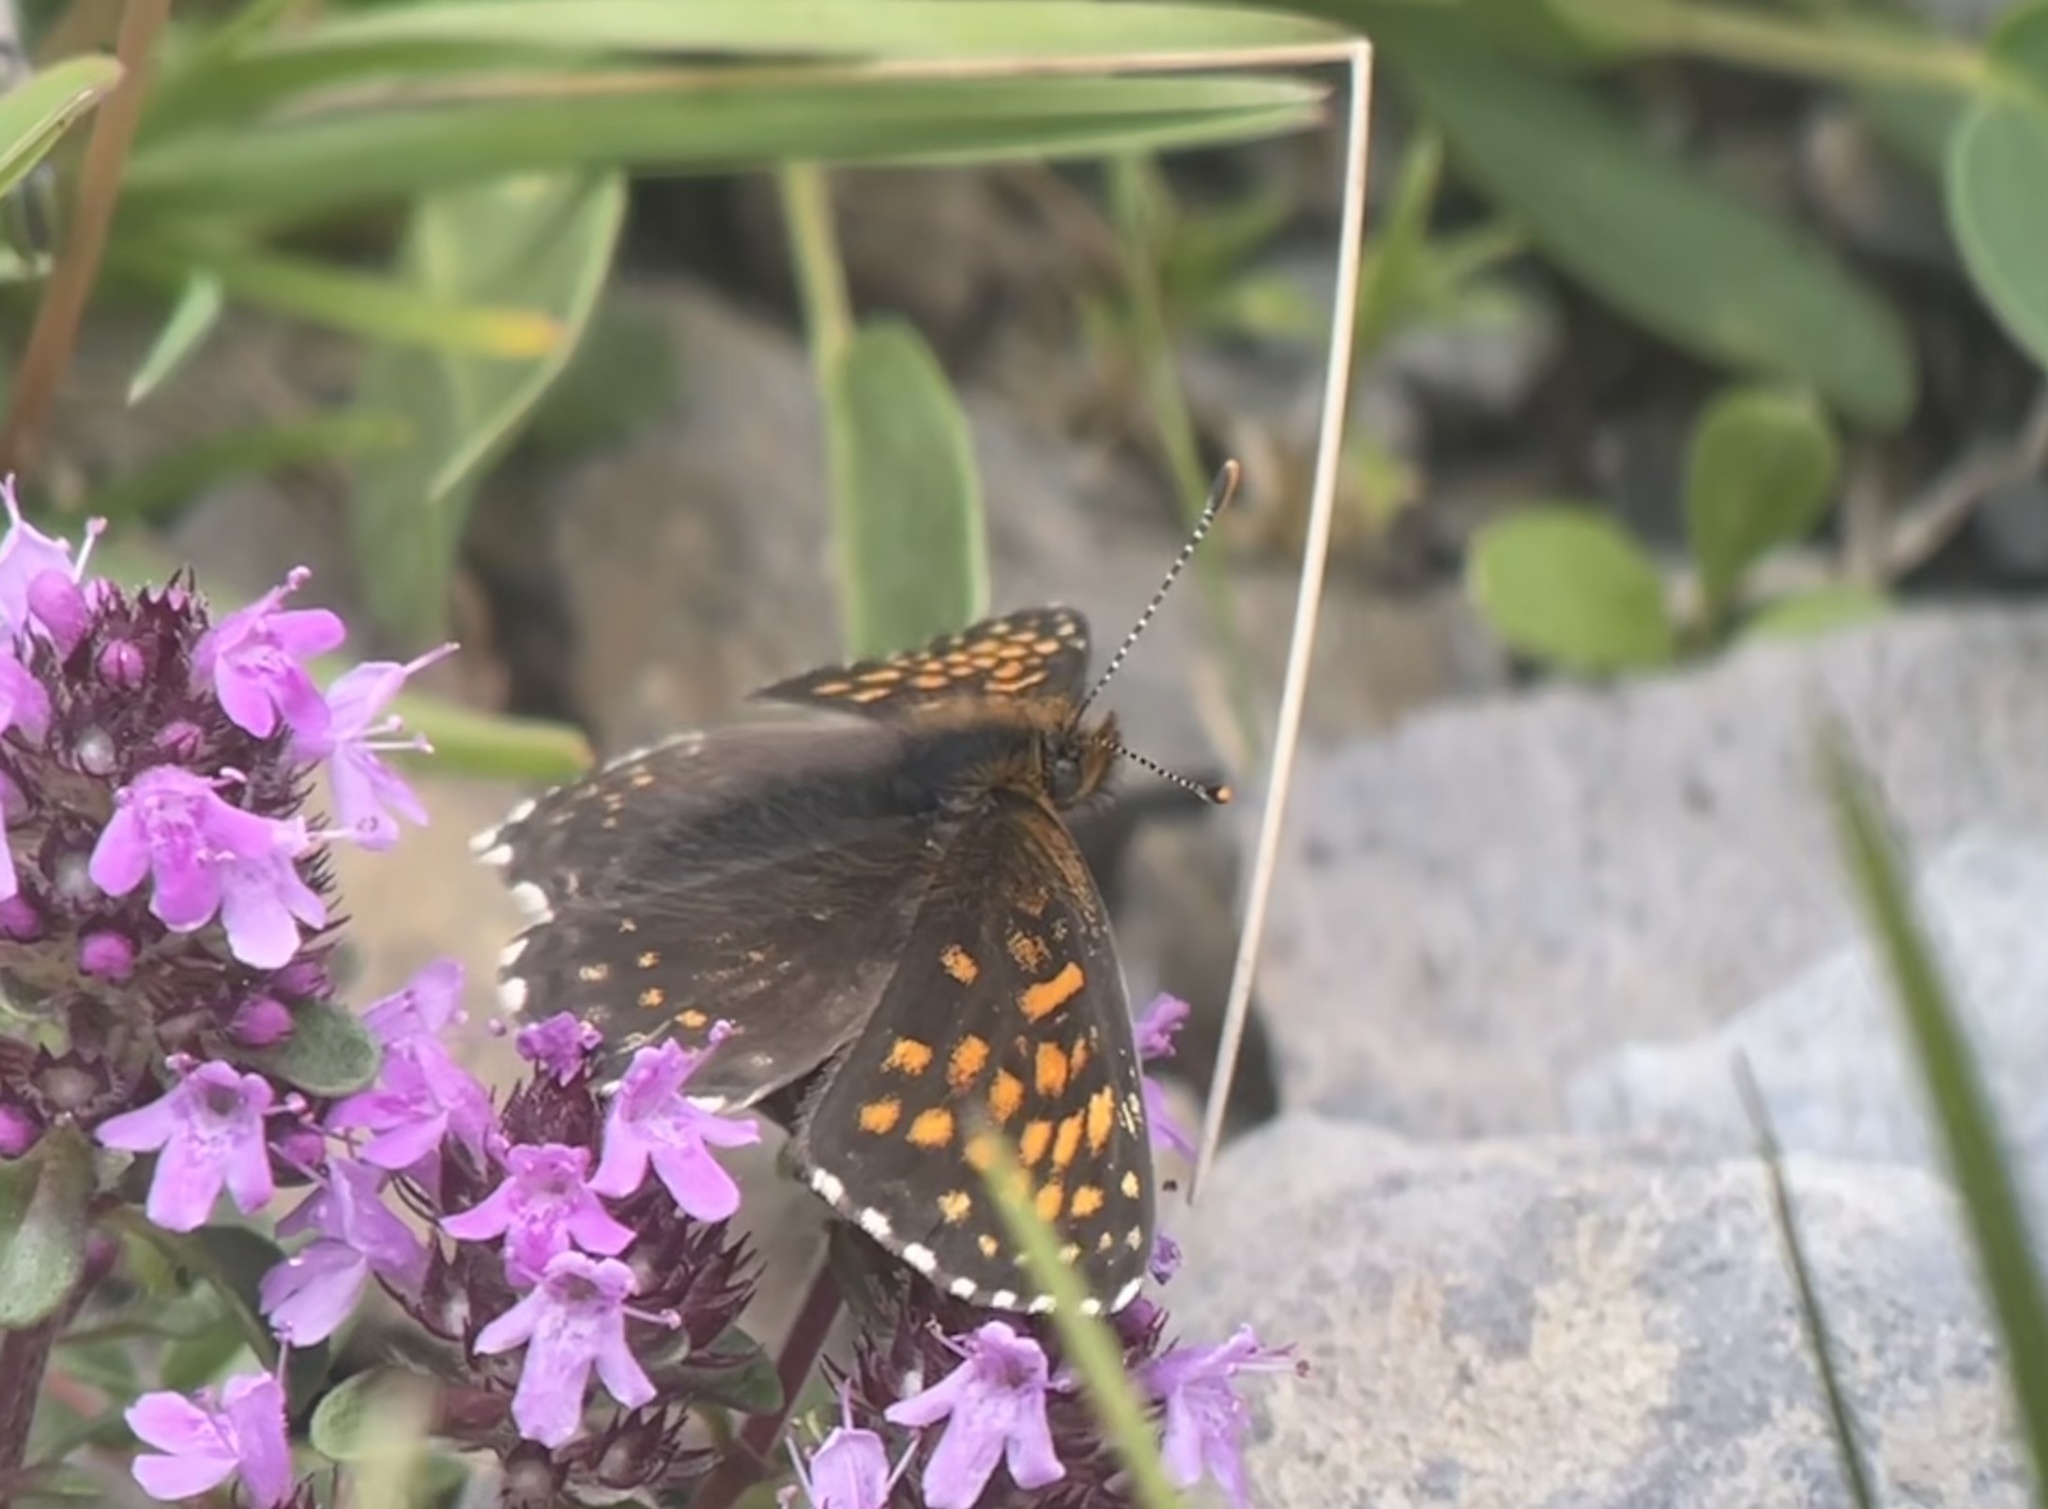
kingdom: Animalia
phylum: Arthropoda
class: Insecta
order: Lepidoptera
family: Nymphalidae
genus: Melitaea
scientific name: Melitaea diamina
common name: False heath fritillary
